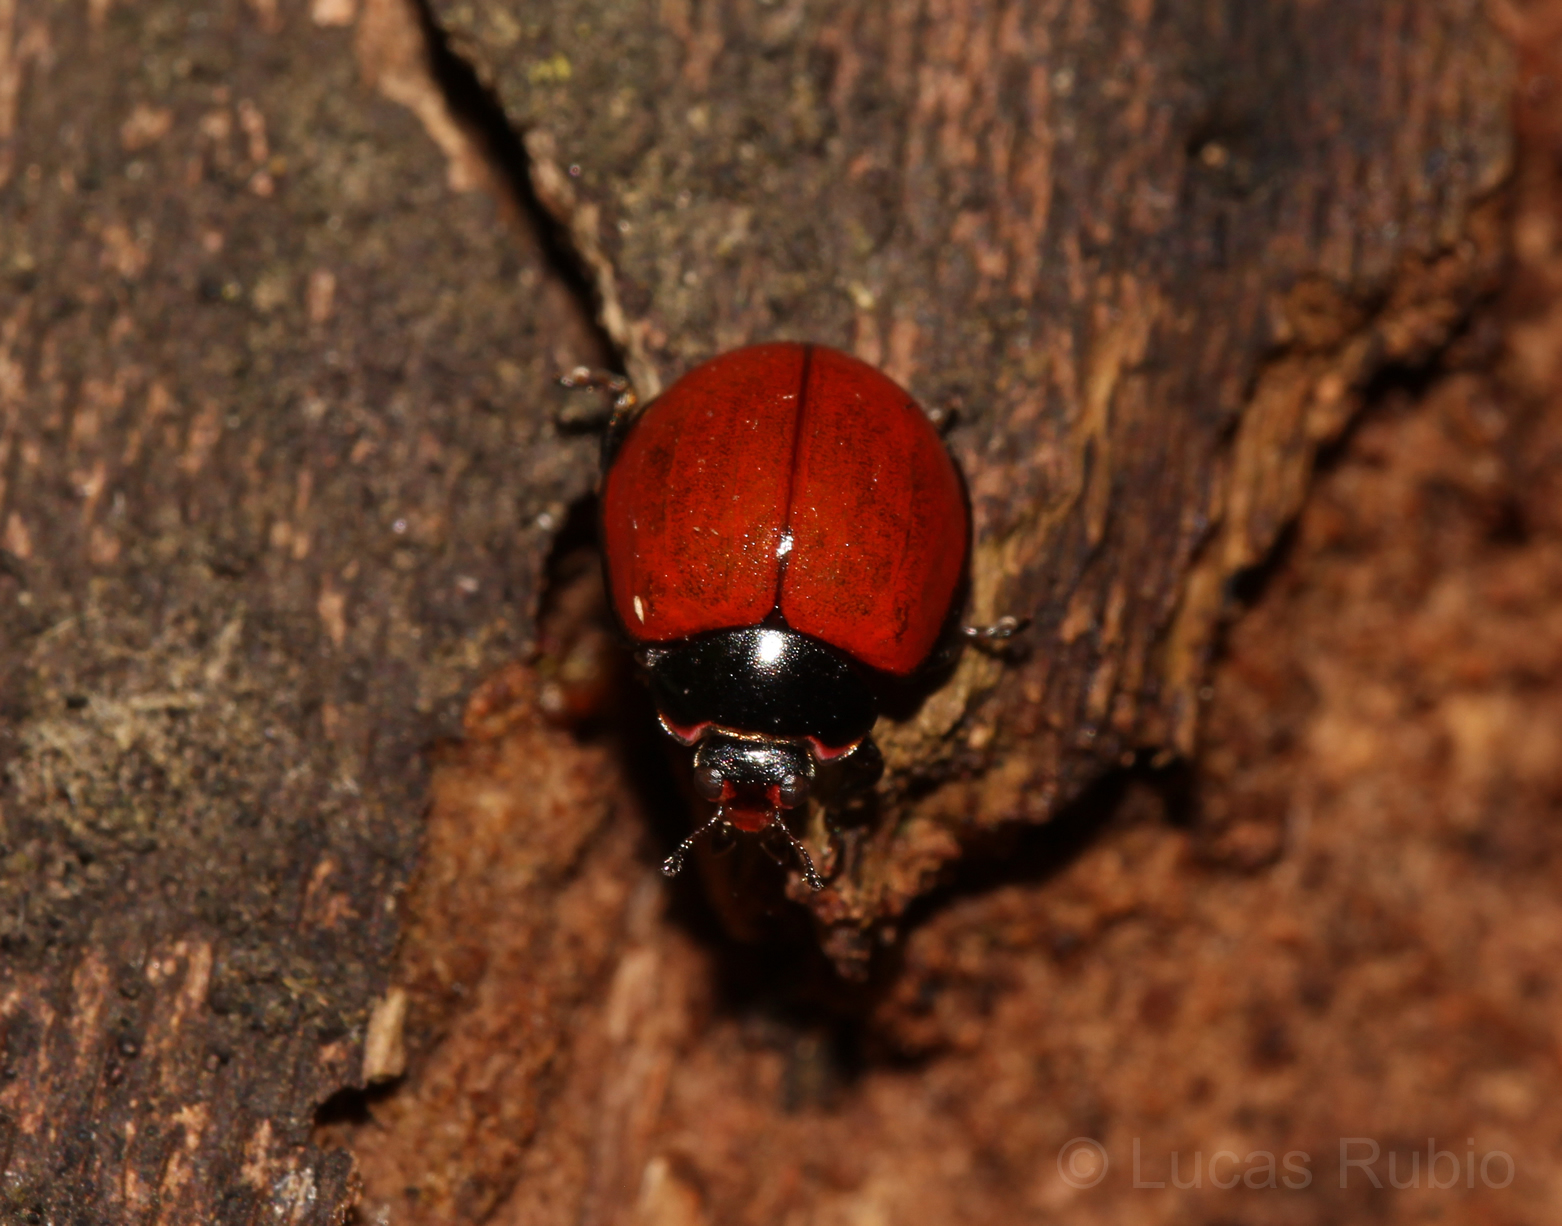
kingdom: Animalia
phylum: Arthropoda
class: Insecta
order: Coleoptera
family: Coccinellidae
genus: Neoharmonia
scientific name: Neoharmonia
